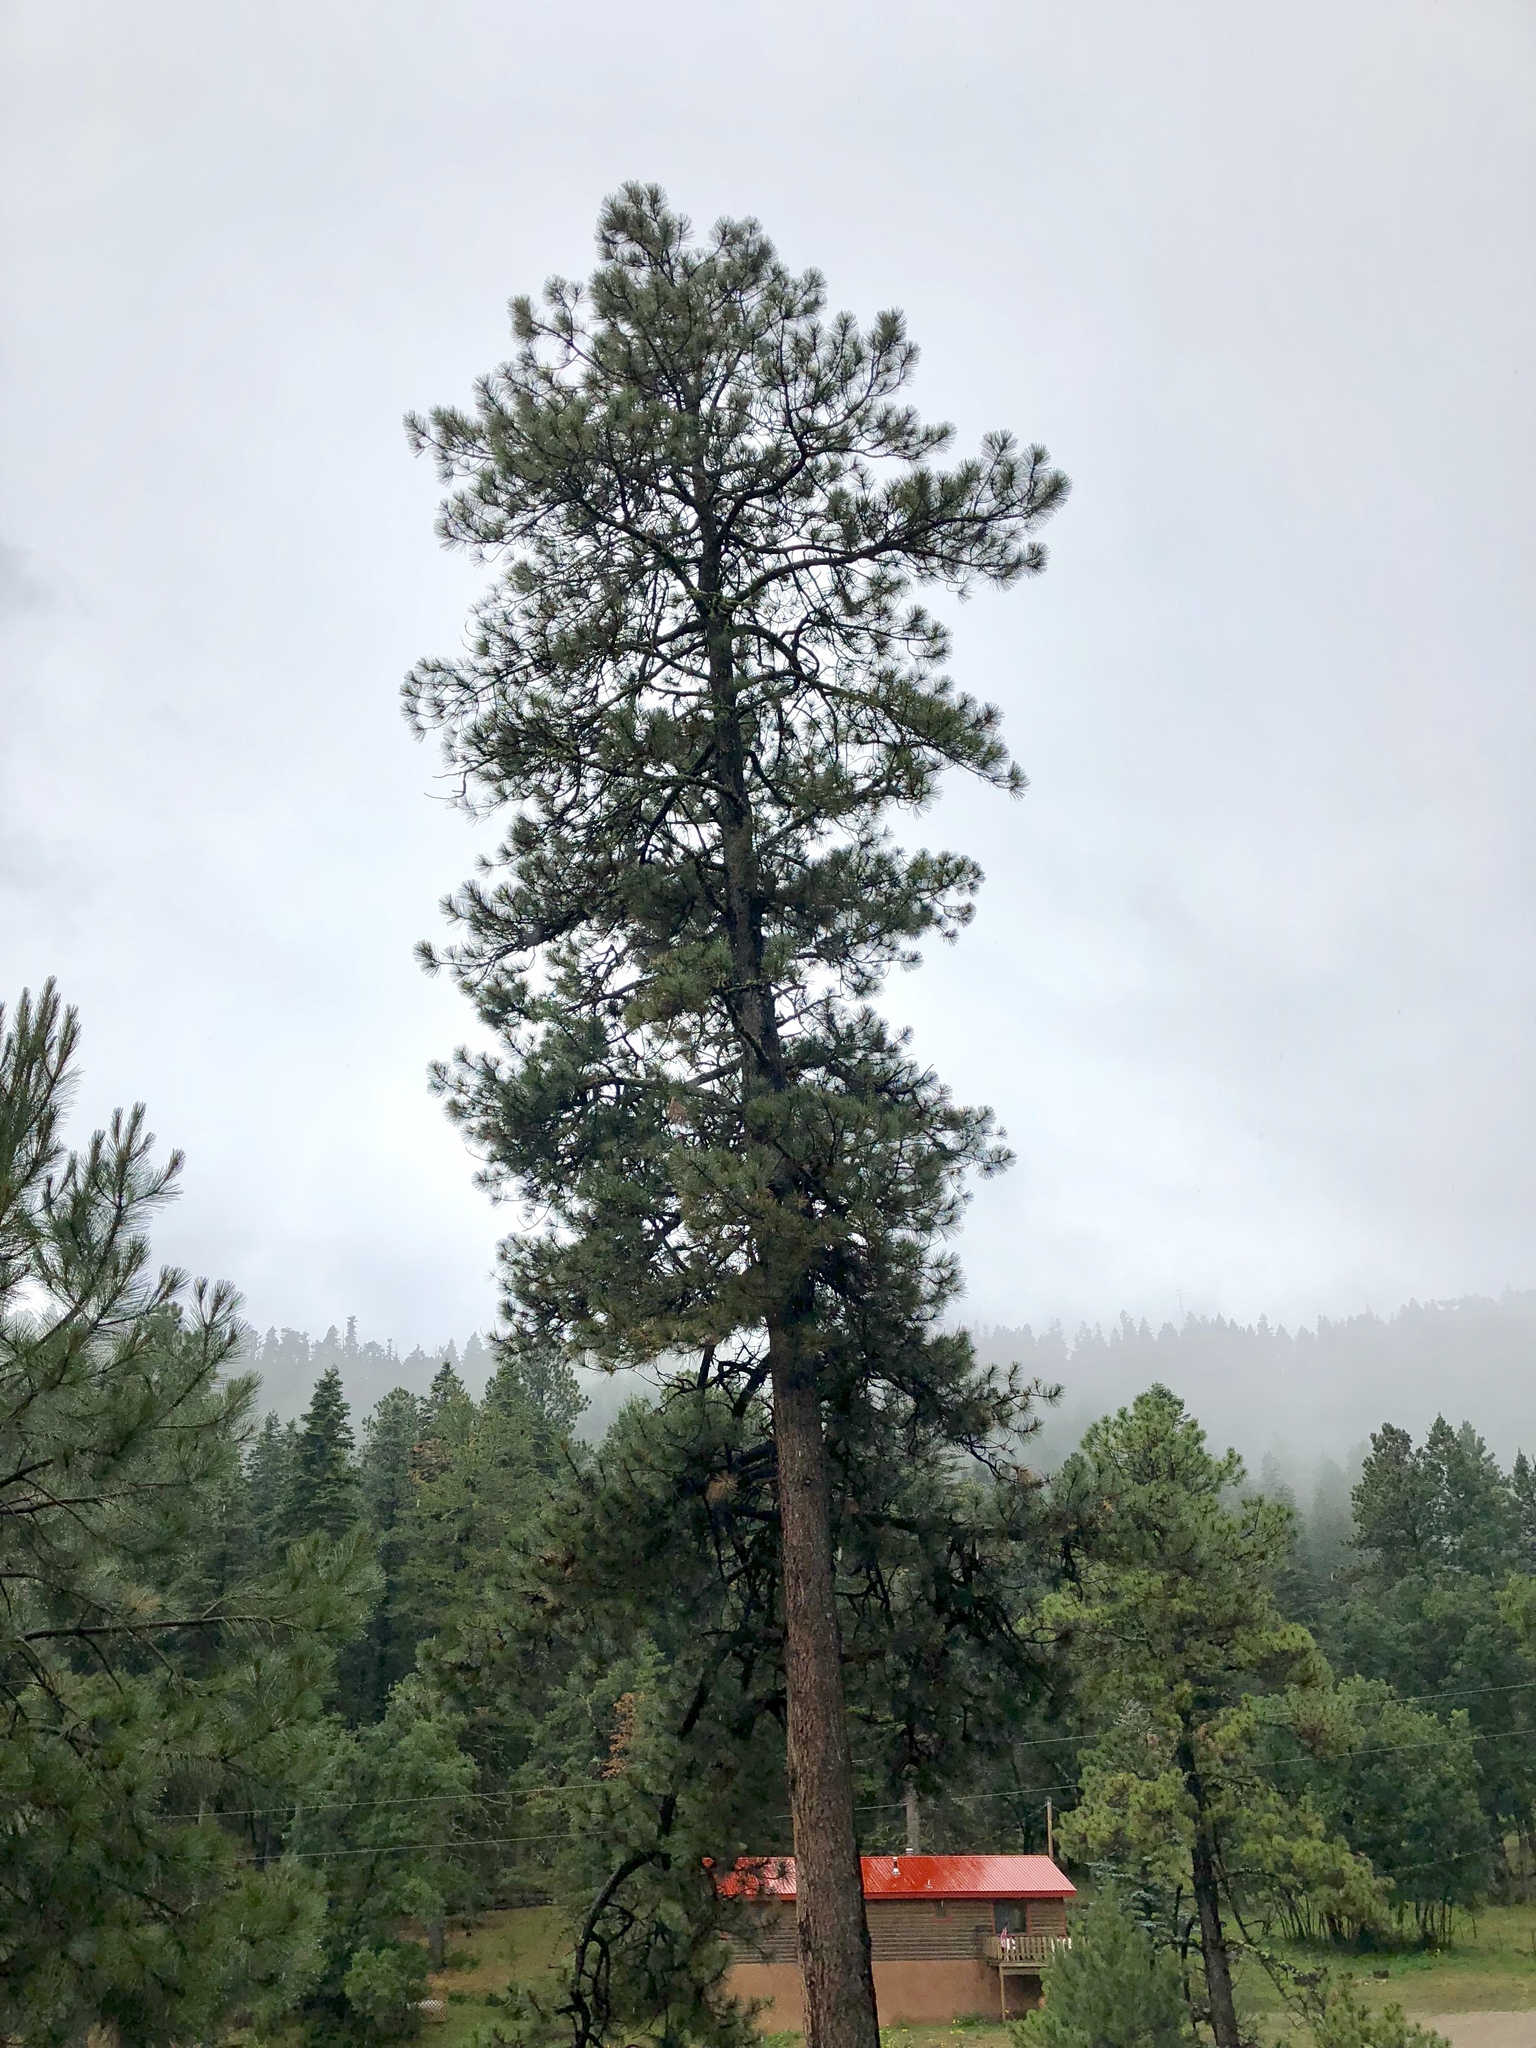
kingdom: Plantae
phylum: Tracheophyta
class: Pinopsida
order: Pinales
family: Pinaceae
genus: Pinus
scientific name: Pinus ponderosa
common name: Western yellow-pine
